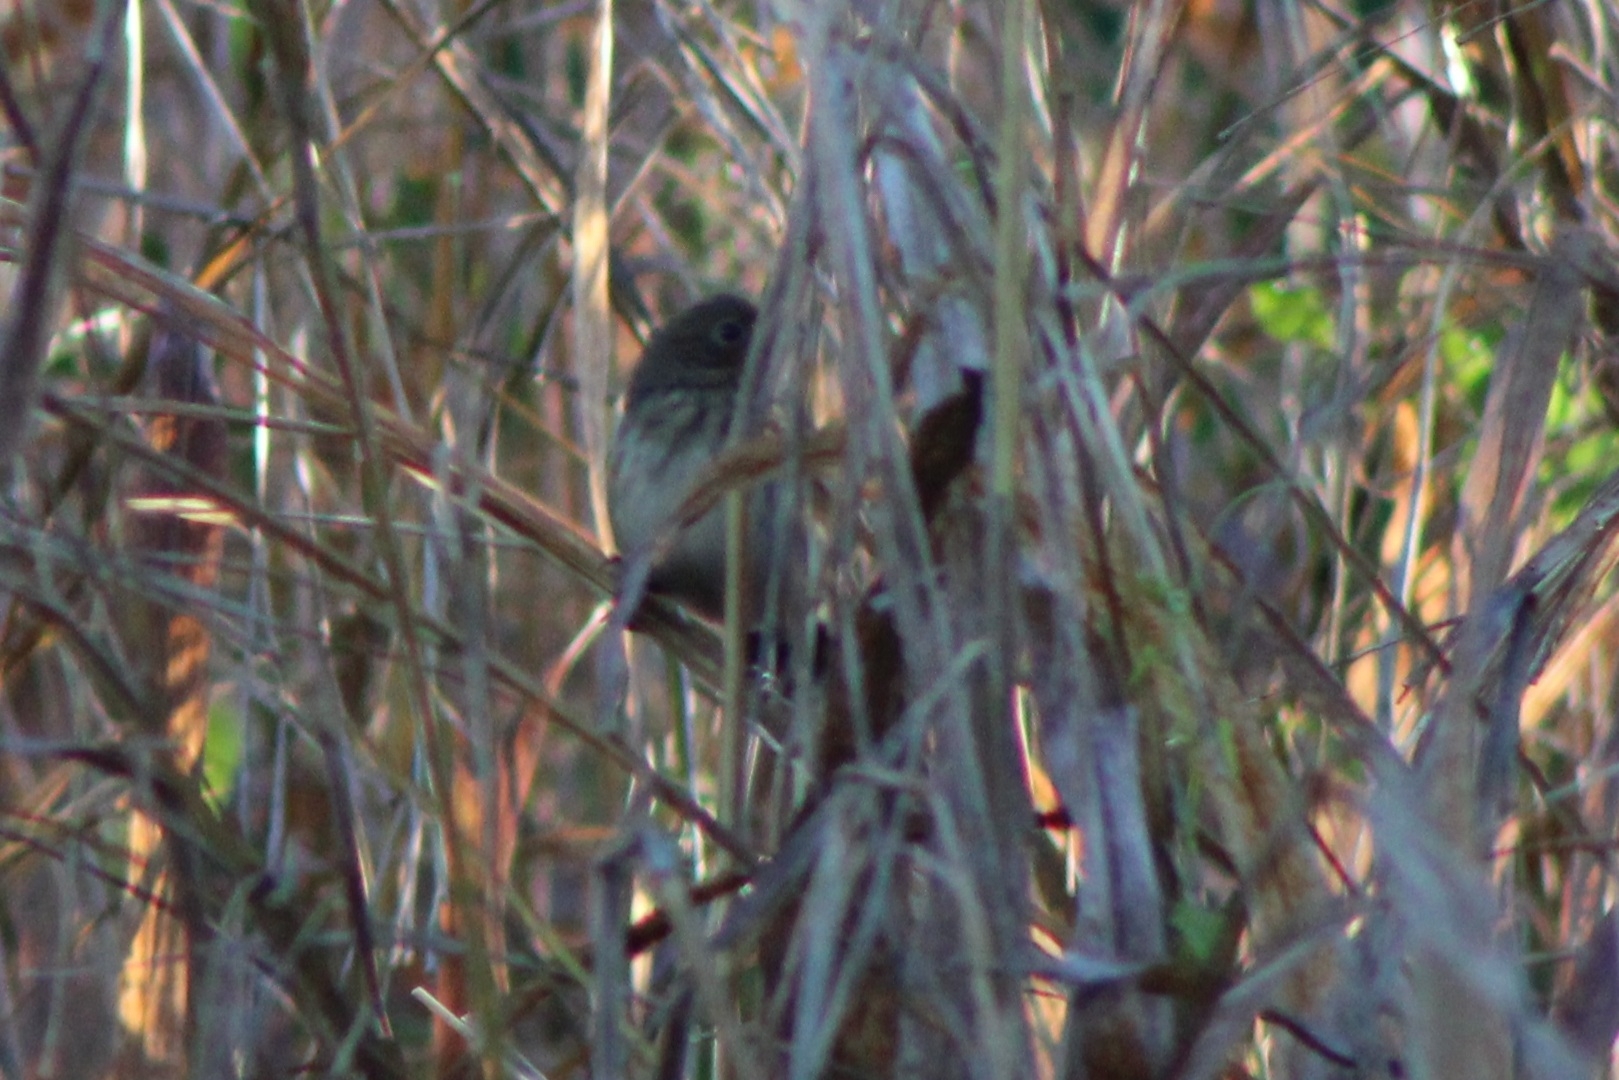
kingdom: Animalia
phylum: Chordata
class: Aves
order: Passeriformes
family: Thraupidae
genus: Volatinia
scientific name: Volatinia jacarina
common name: Blue-black grassquit
